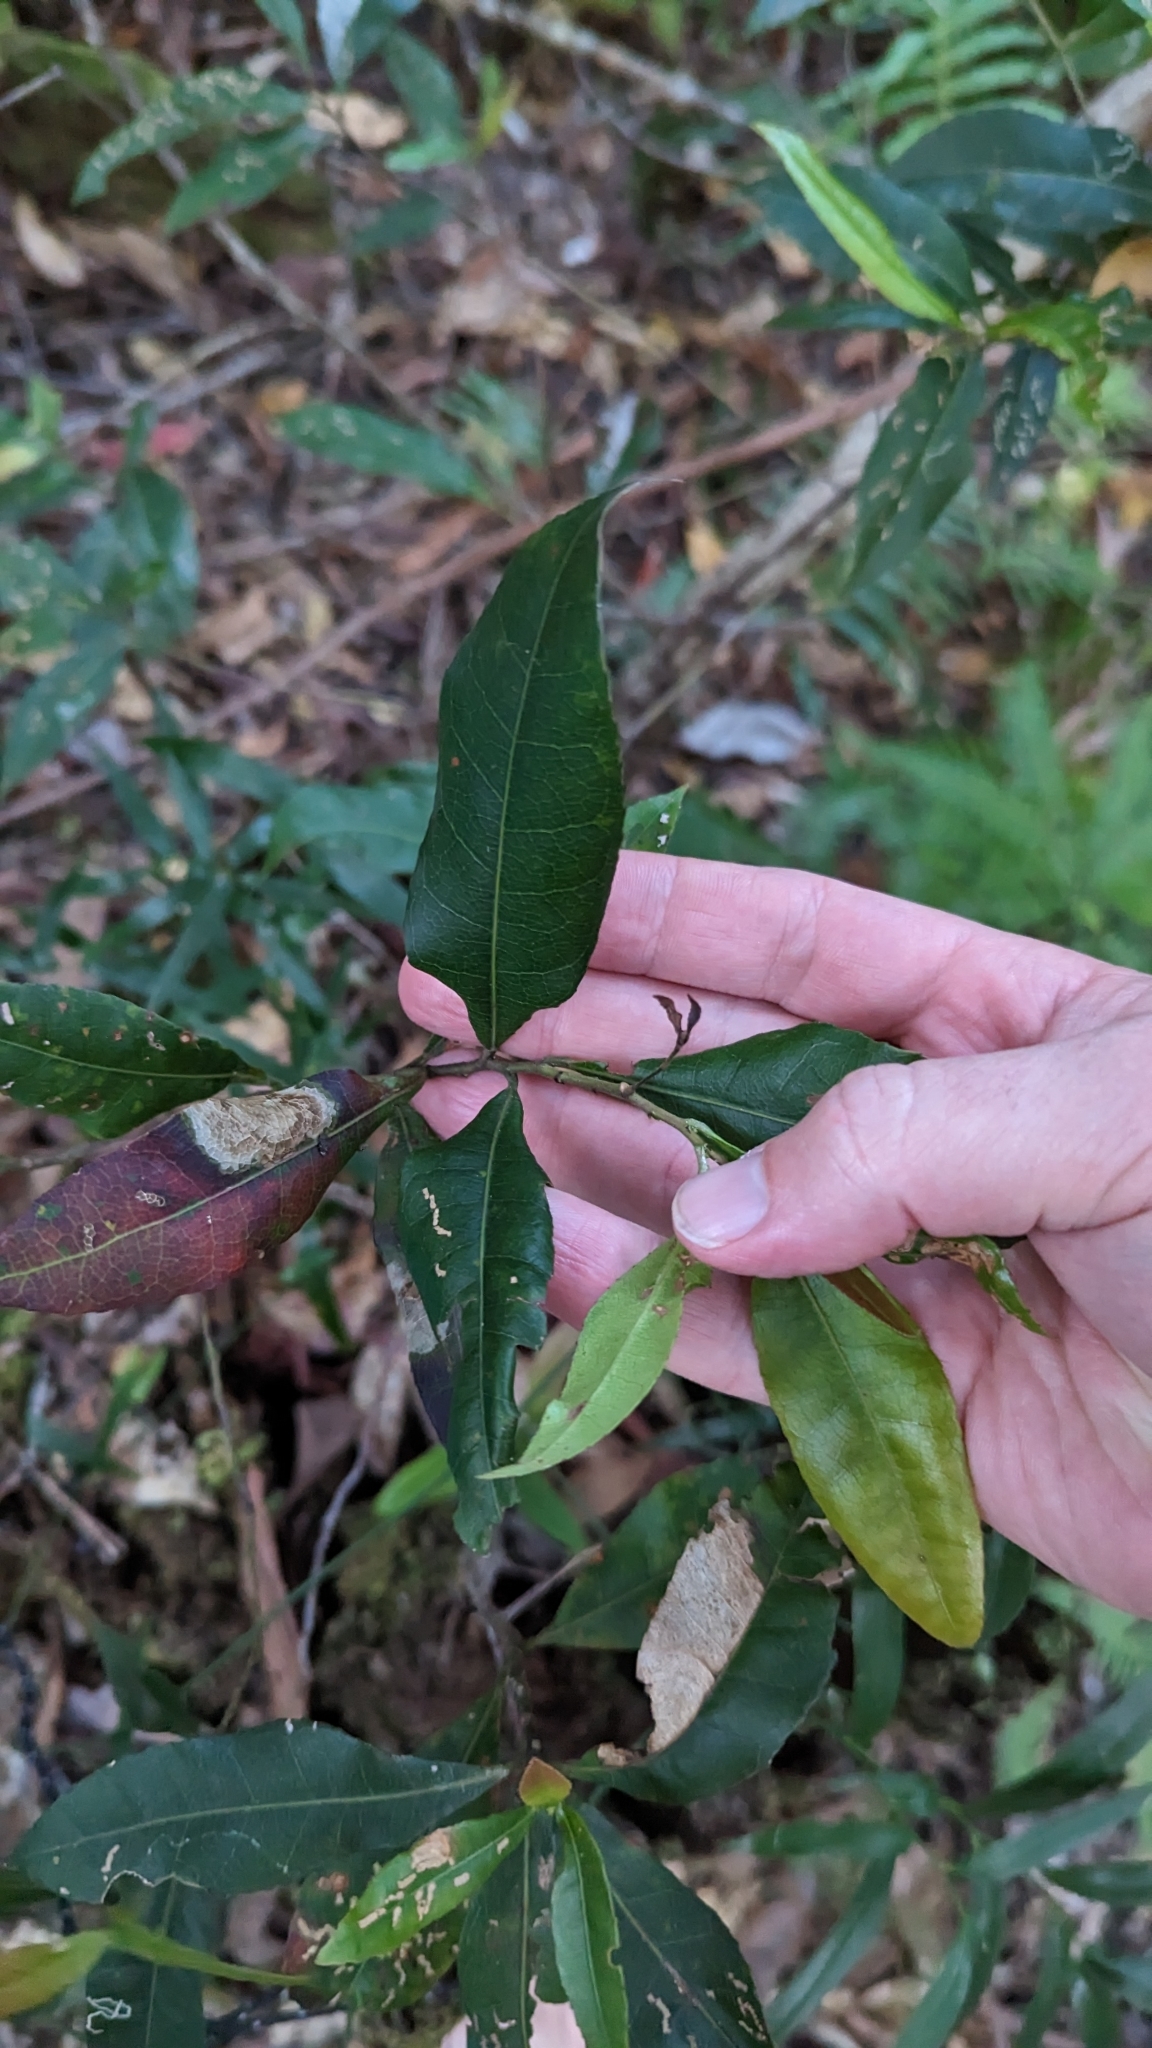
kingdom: Plantae
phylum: Tracheophyta
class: Magnoliopsida
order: Oxalidales
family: Elaeocarpaceae
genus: Elaeocarpus
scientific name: Elaeocarpus reticulatus
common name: Ash quandong
